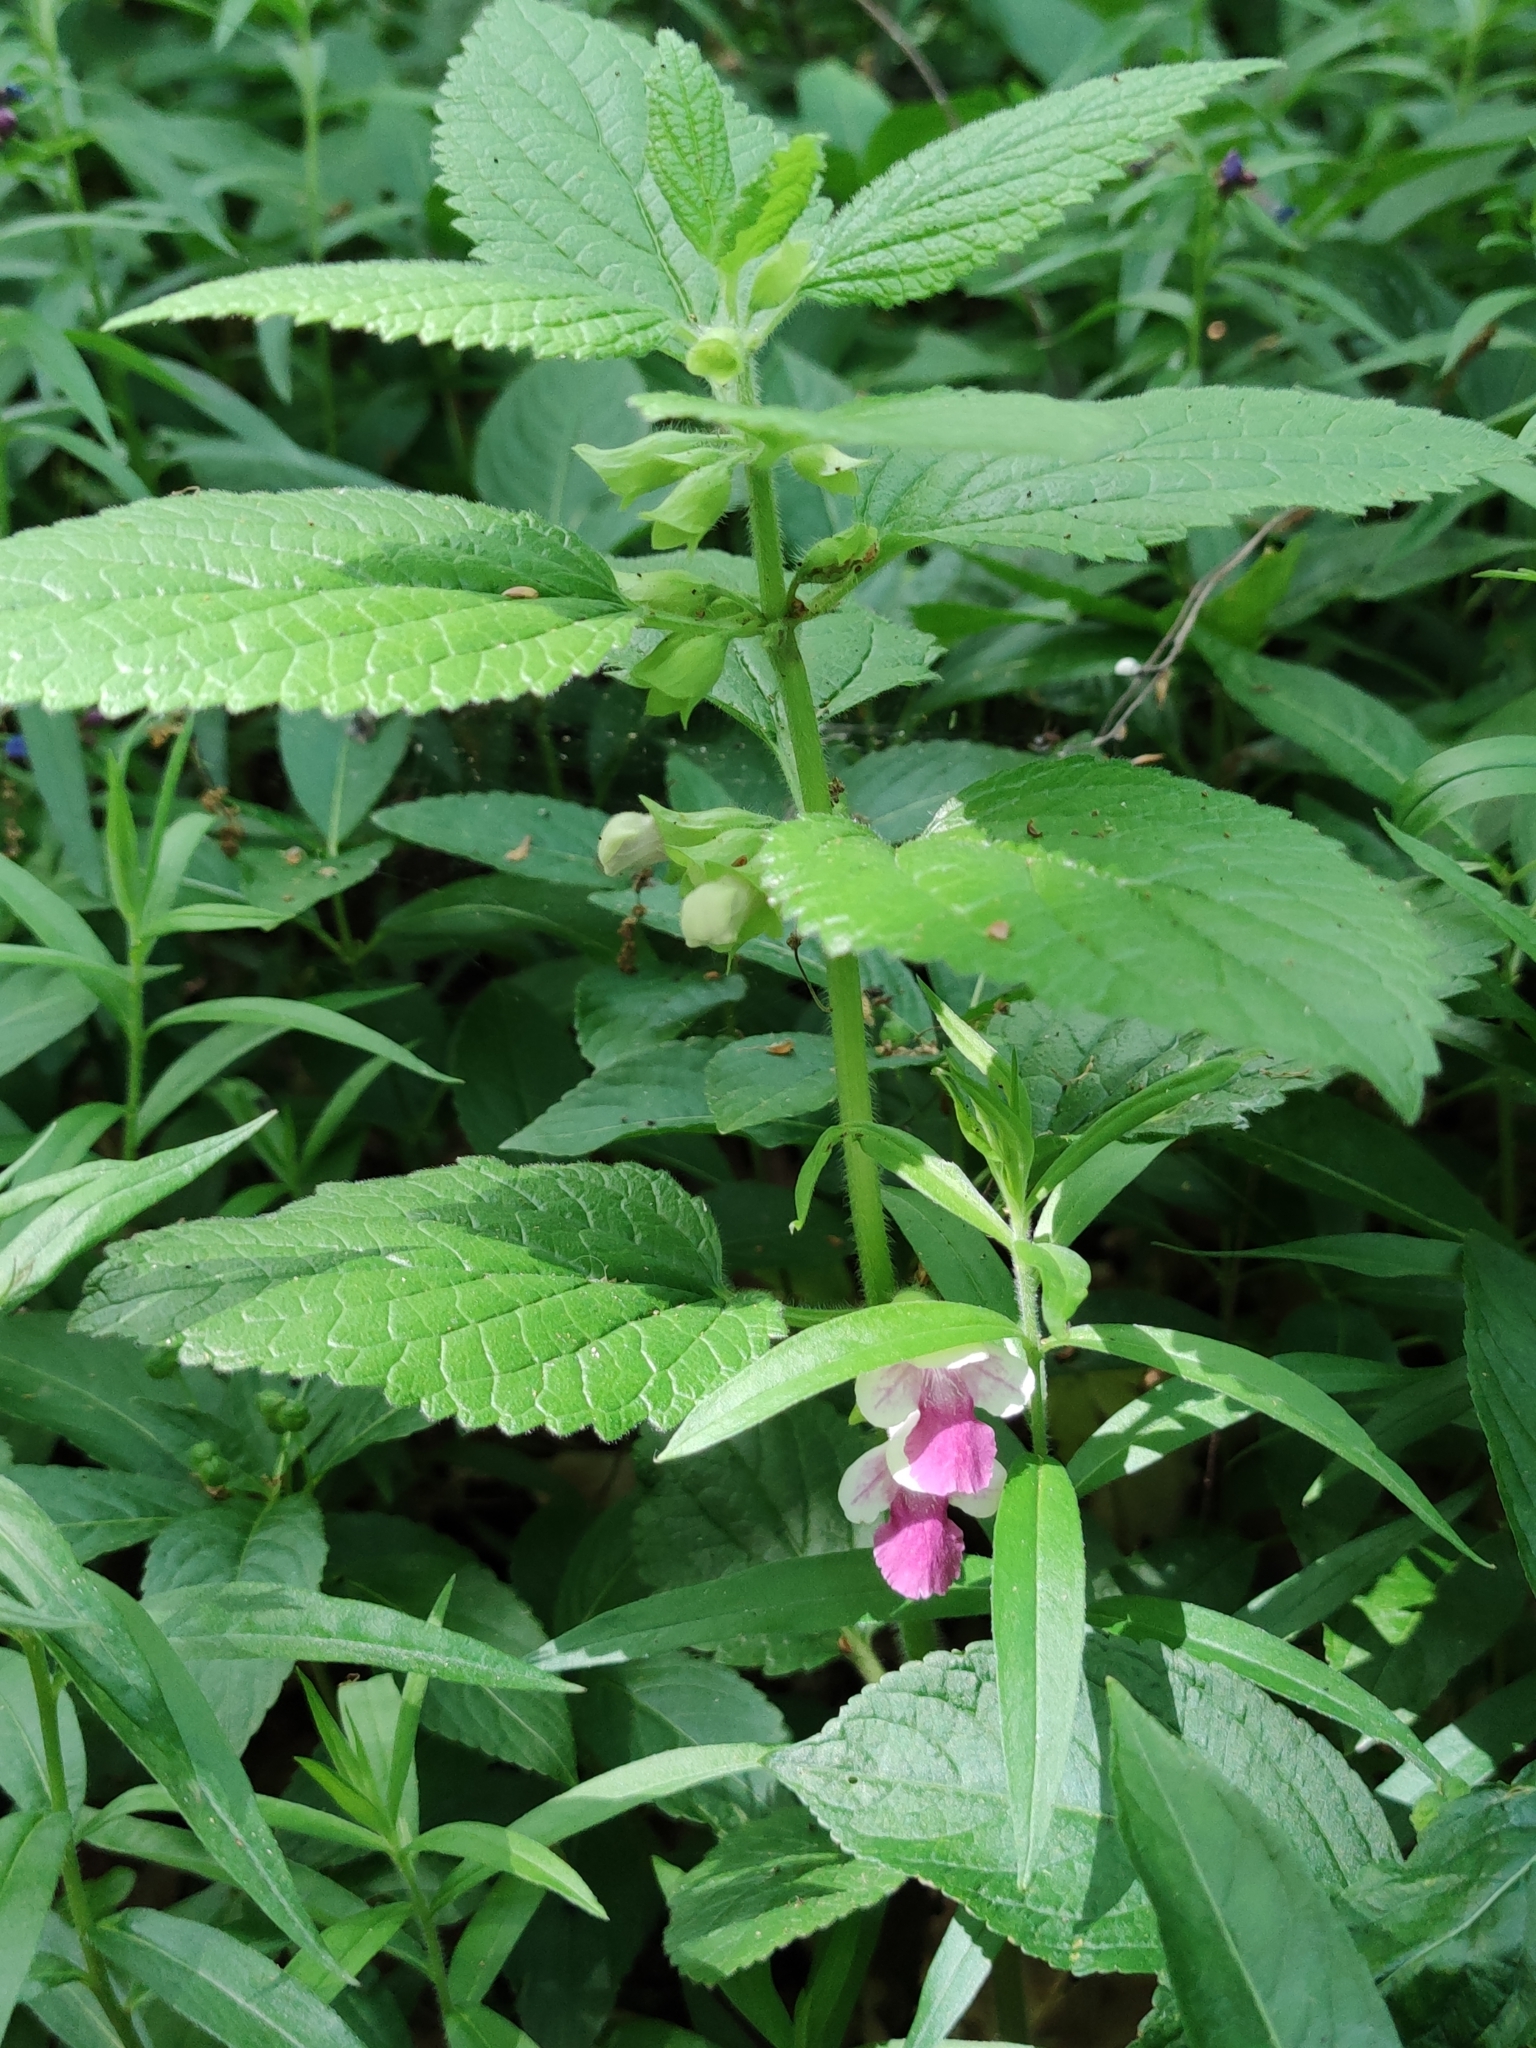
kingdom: Plantae
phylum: Tracheophyta
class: Magnoliopsida
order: Lamiales
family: Lamiaceae
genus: Melittis
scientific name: Melittis melissophyllum
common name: Bastard balm
